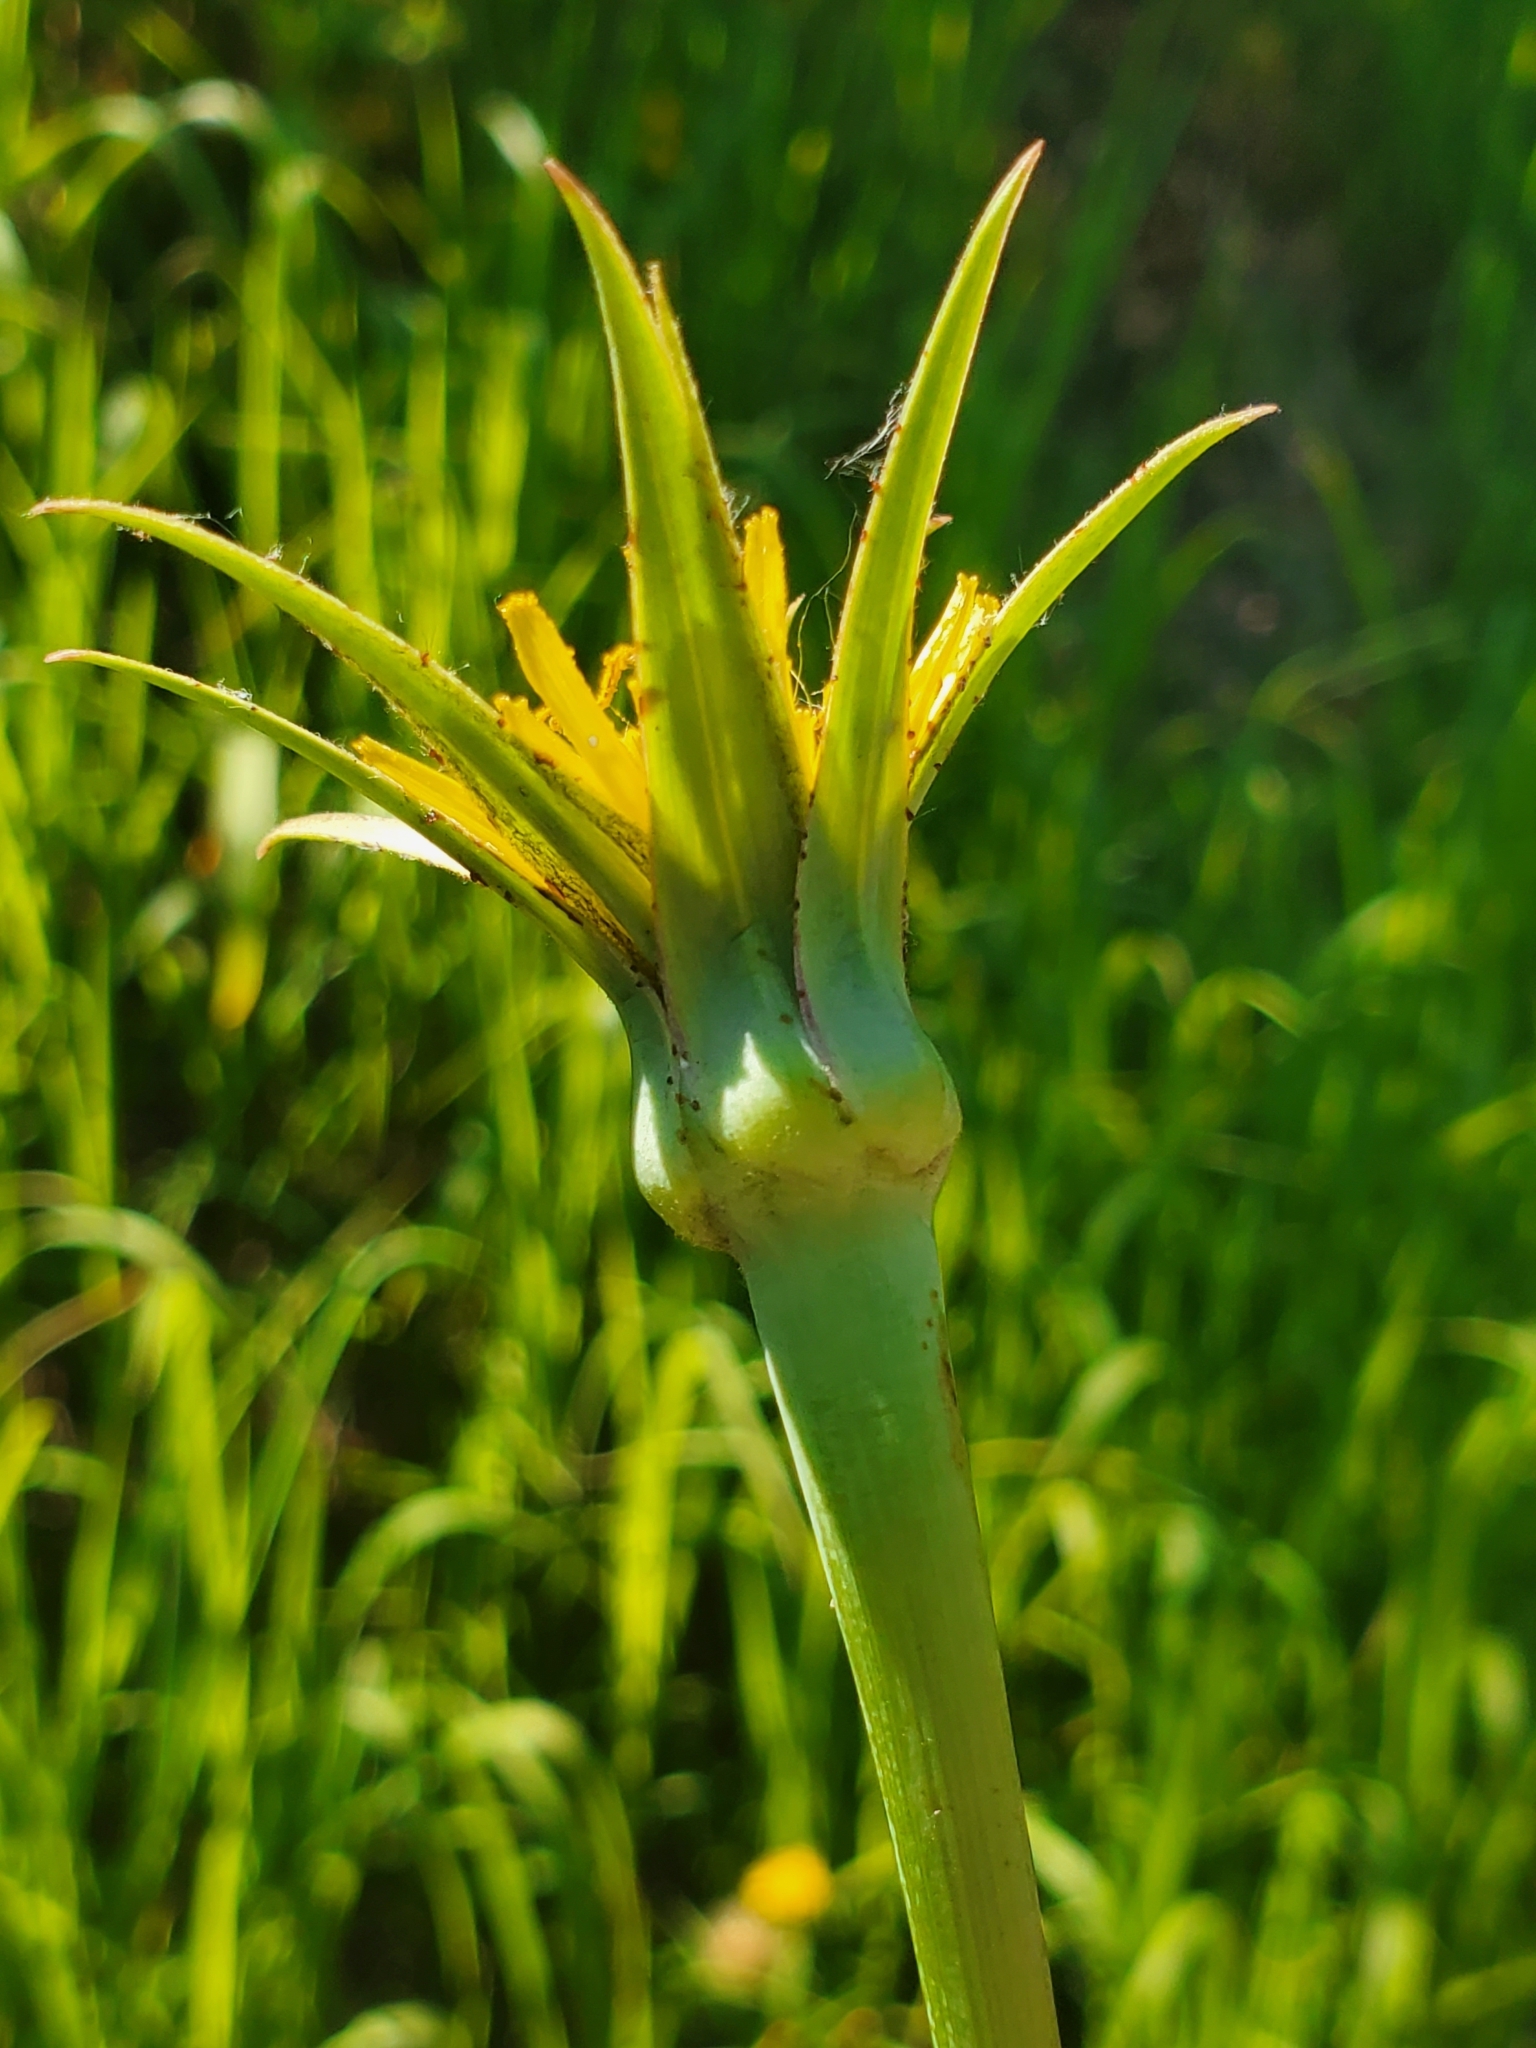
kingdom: Plantae
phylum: Tracheophyta
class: Magnoliopsida
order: Asterales
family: Asteraceae
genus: Tragopogon
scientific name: Tragopogon dubius
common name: Yellow salsify
